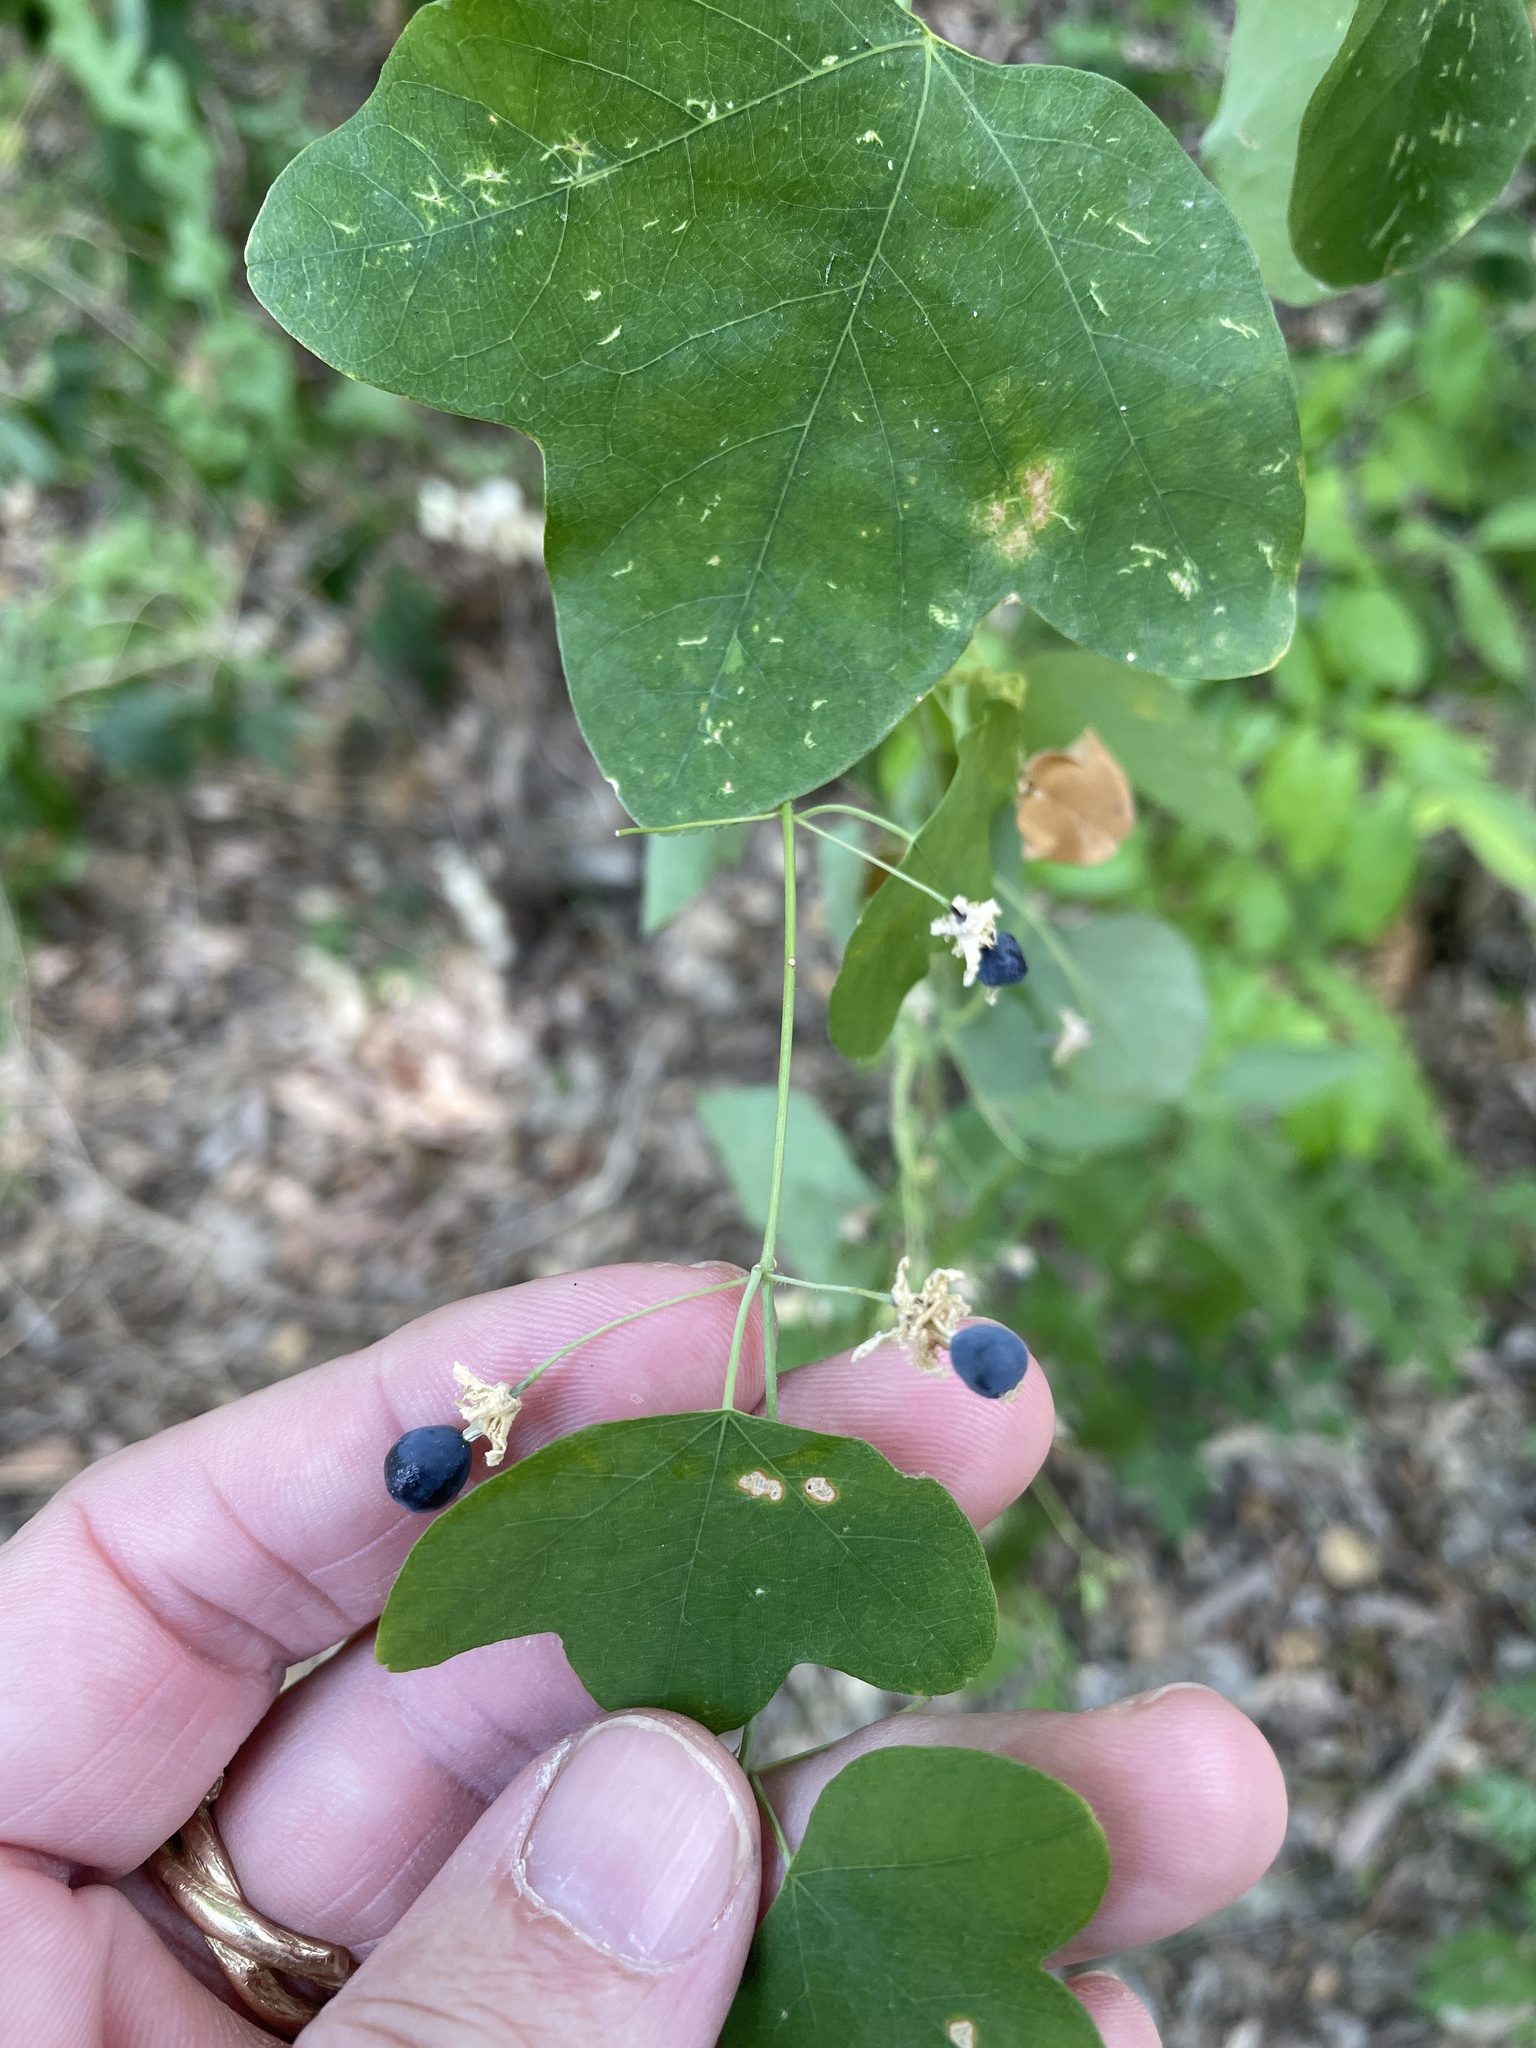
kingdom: Plantae
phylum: Tracheophyta
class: Magnoliopsida
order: Malpighiales
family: Passifloraceae
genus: Passiflora
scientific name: Passiflora lutea
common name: Yellow passionflower
